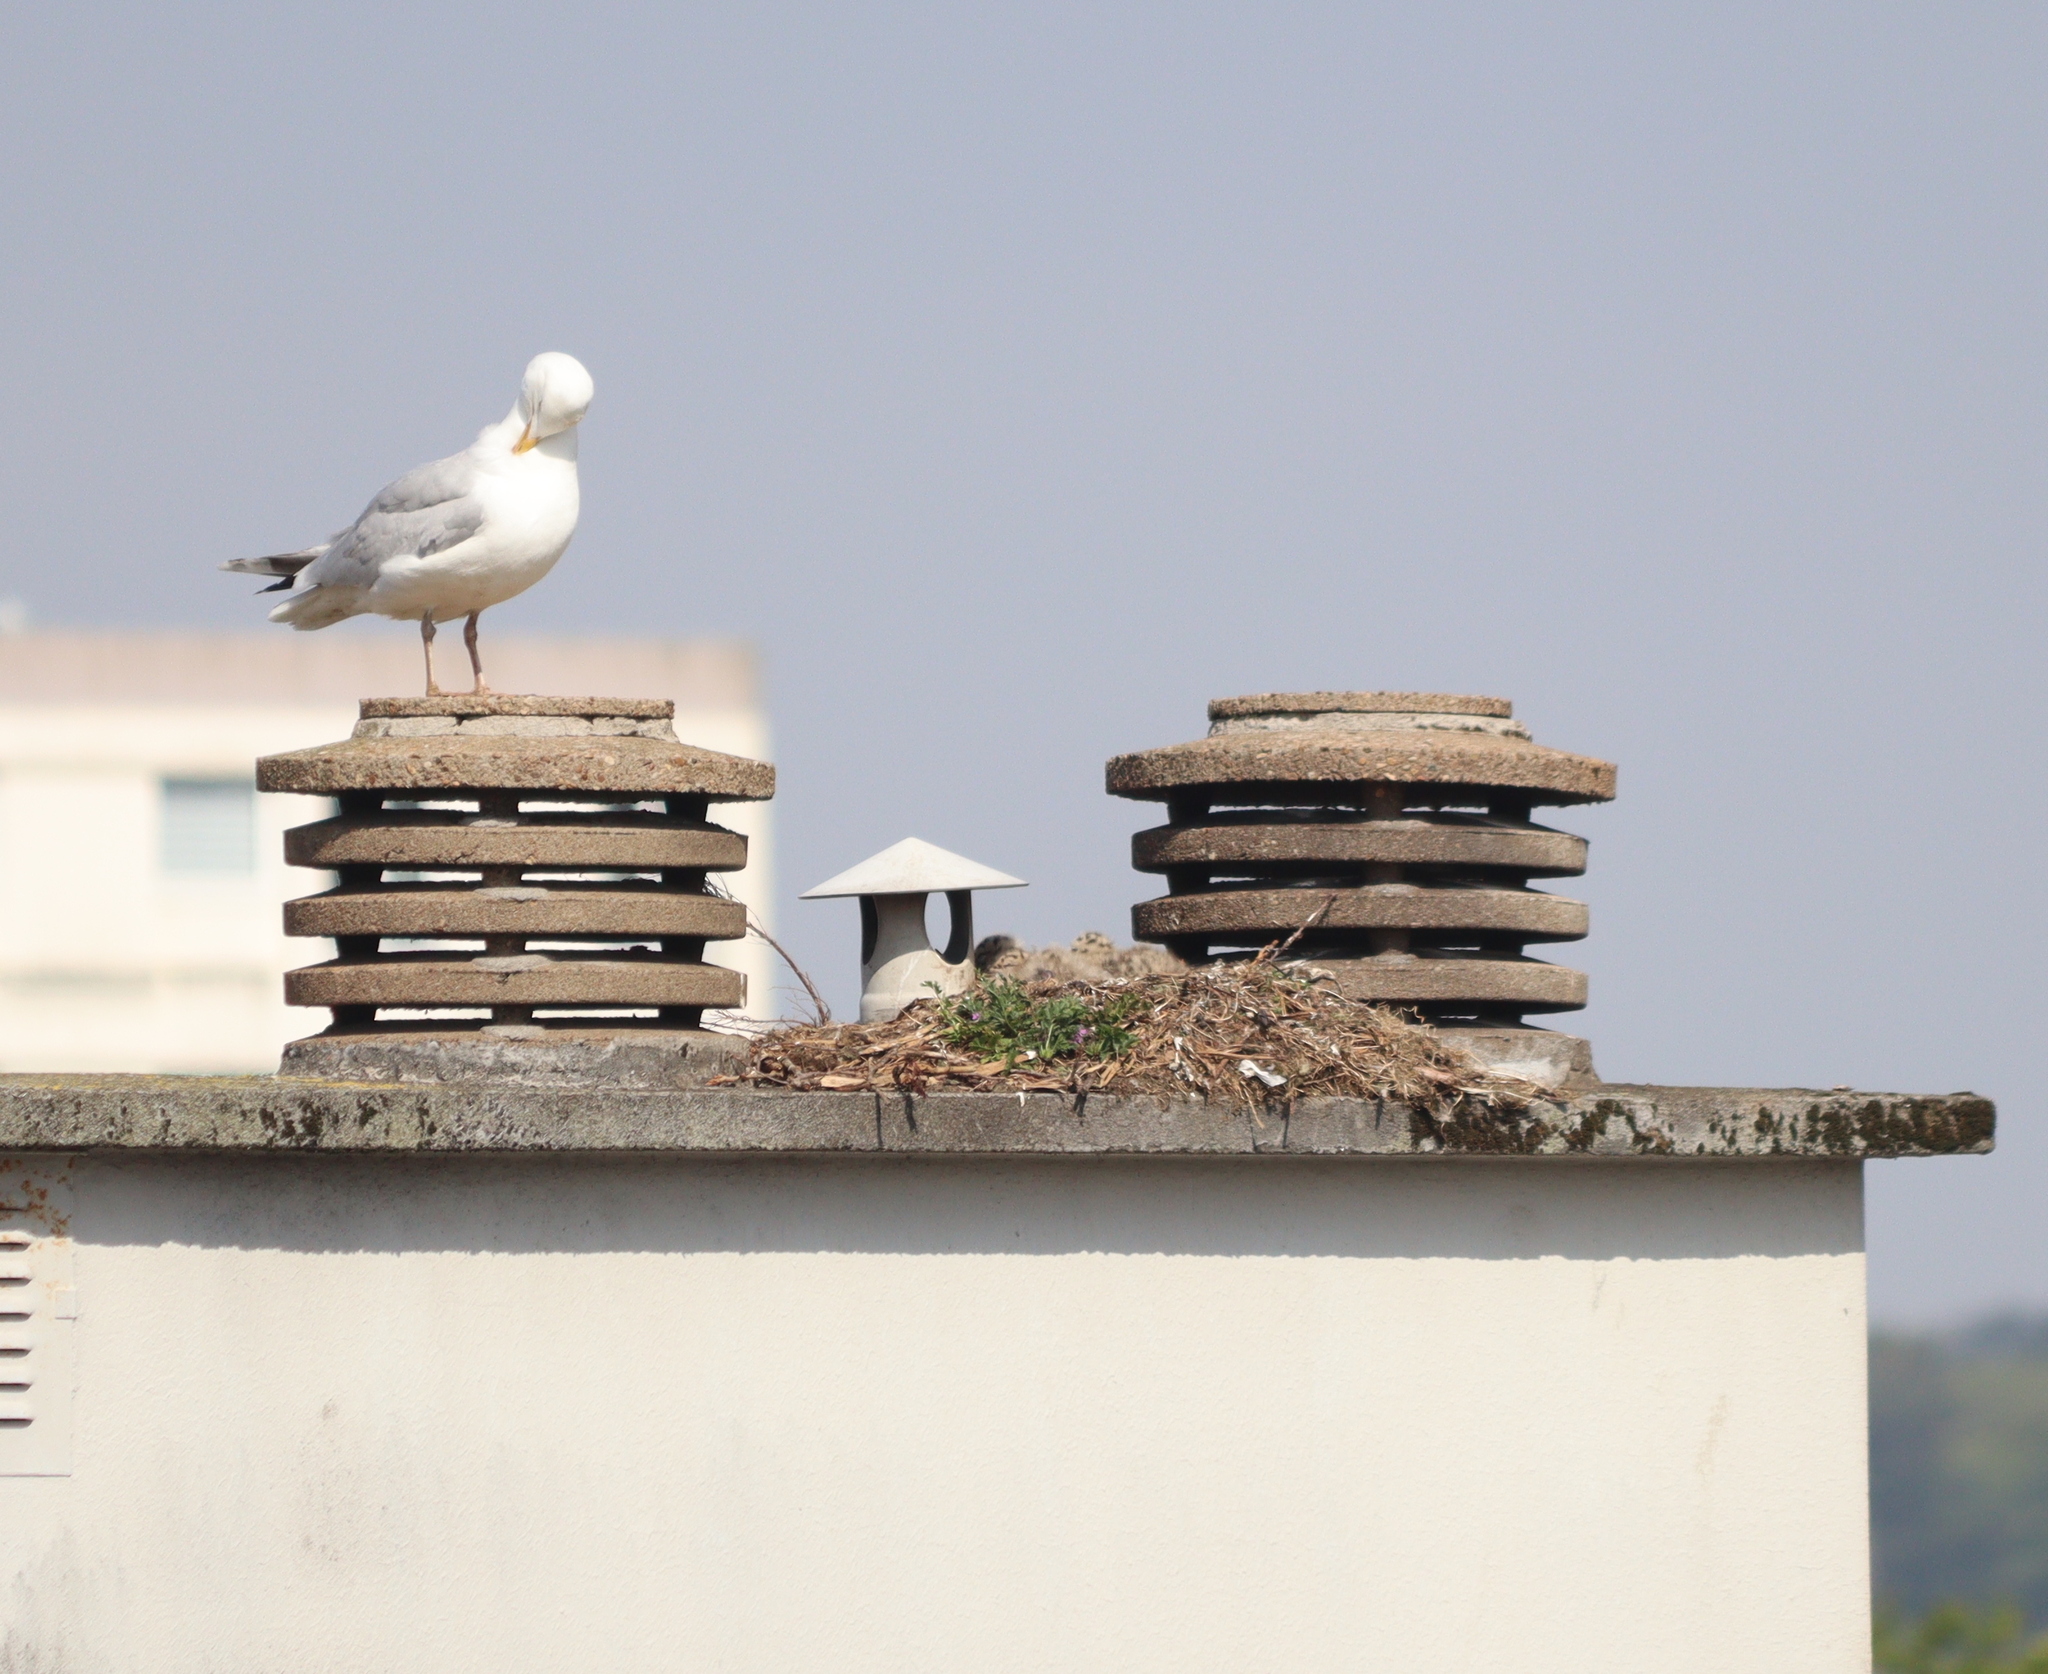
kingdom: Animalia
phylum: Chordata
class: Aves
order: Charadriiformes
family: Laridae
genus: Larus
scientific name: Larus argentatus
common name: Herring gull
